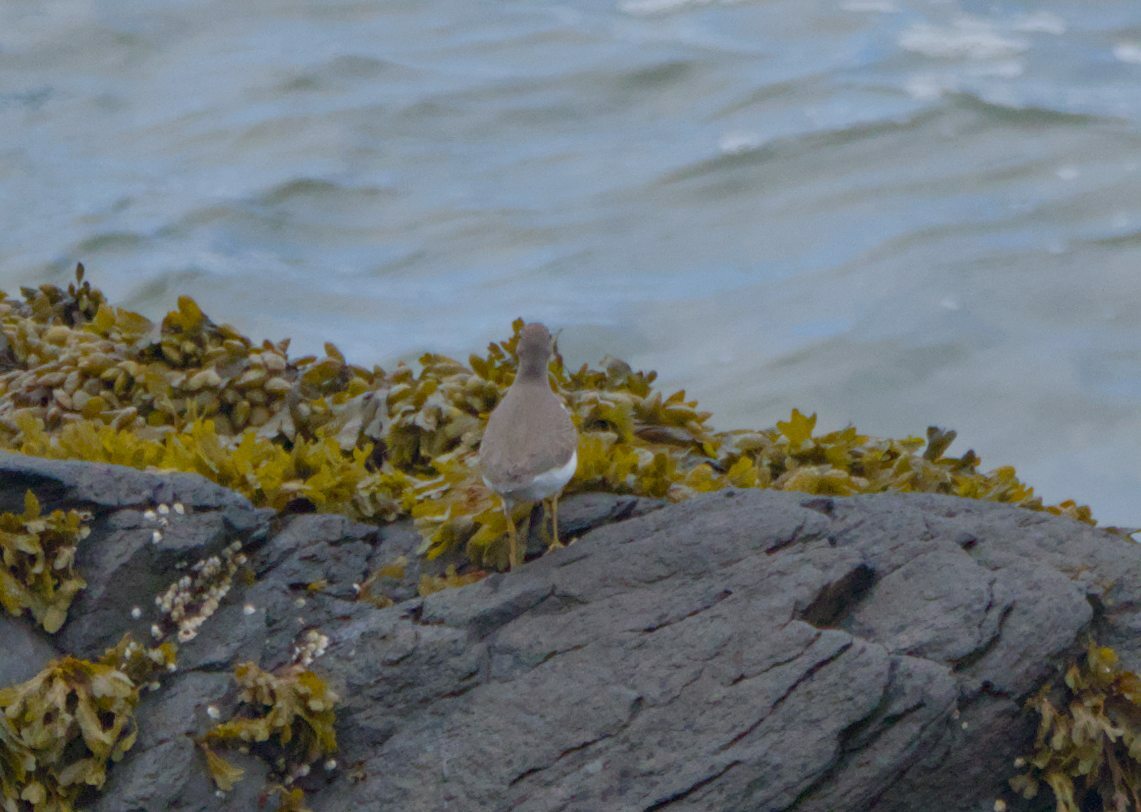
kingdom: Animalia
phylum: Chordata
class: Aves
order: Charadriiformes
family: Scolopacidae
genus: Actitis
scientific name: Actitis macularius
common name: Spotted sandpiper
